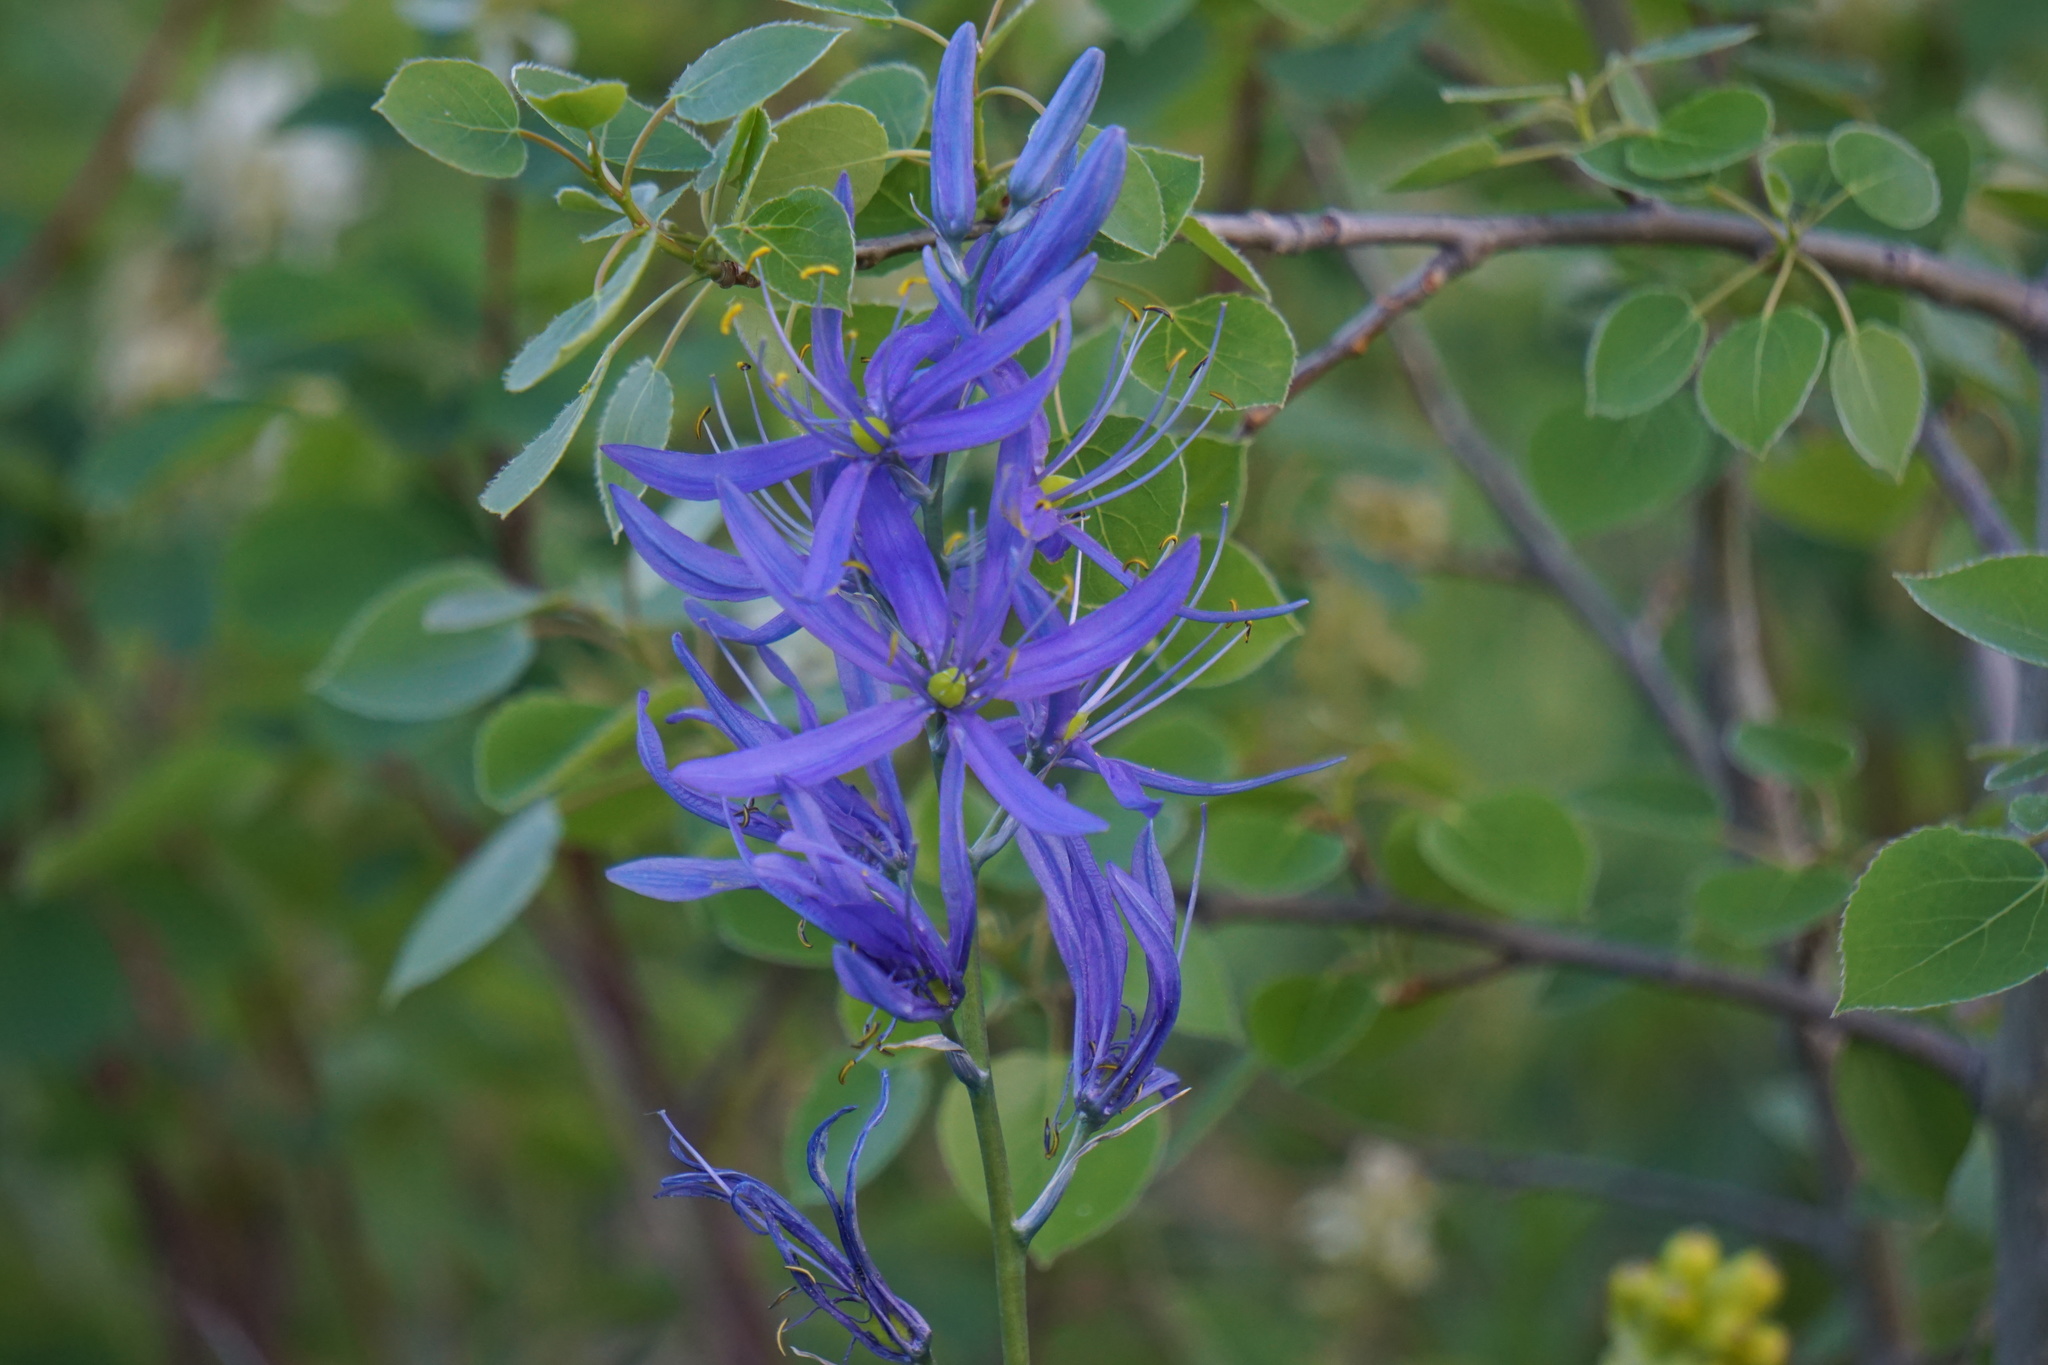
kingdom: Plantae
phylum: Tracheophyta
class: Liliopsida
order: Asparagales
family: Asparagaceae
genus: Camassia
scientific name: Camassia quamash
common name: Common camas
